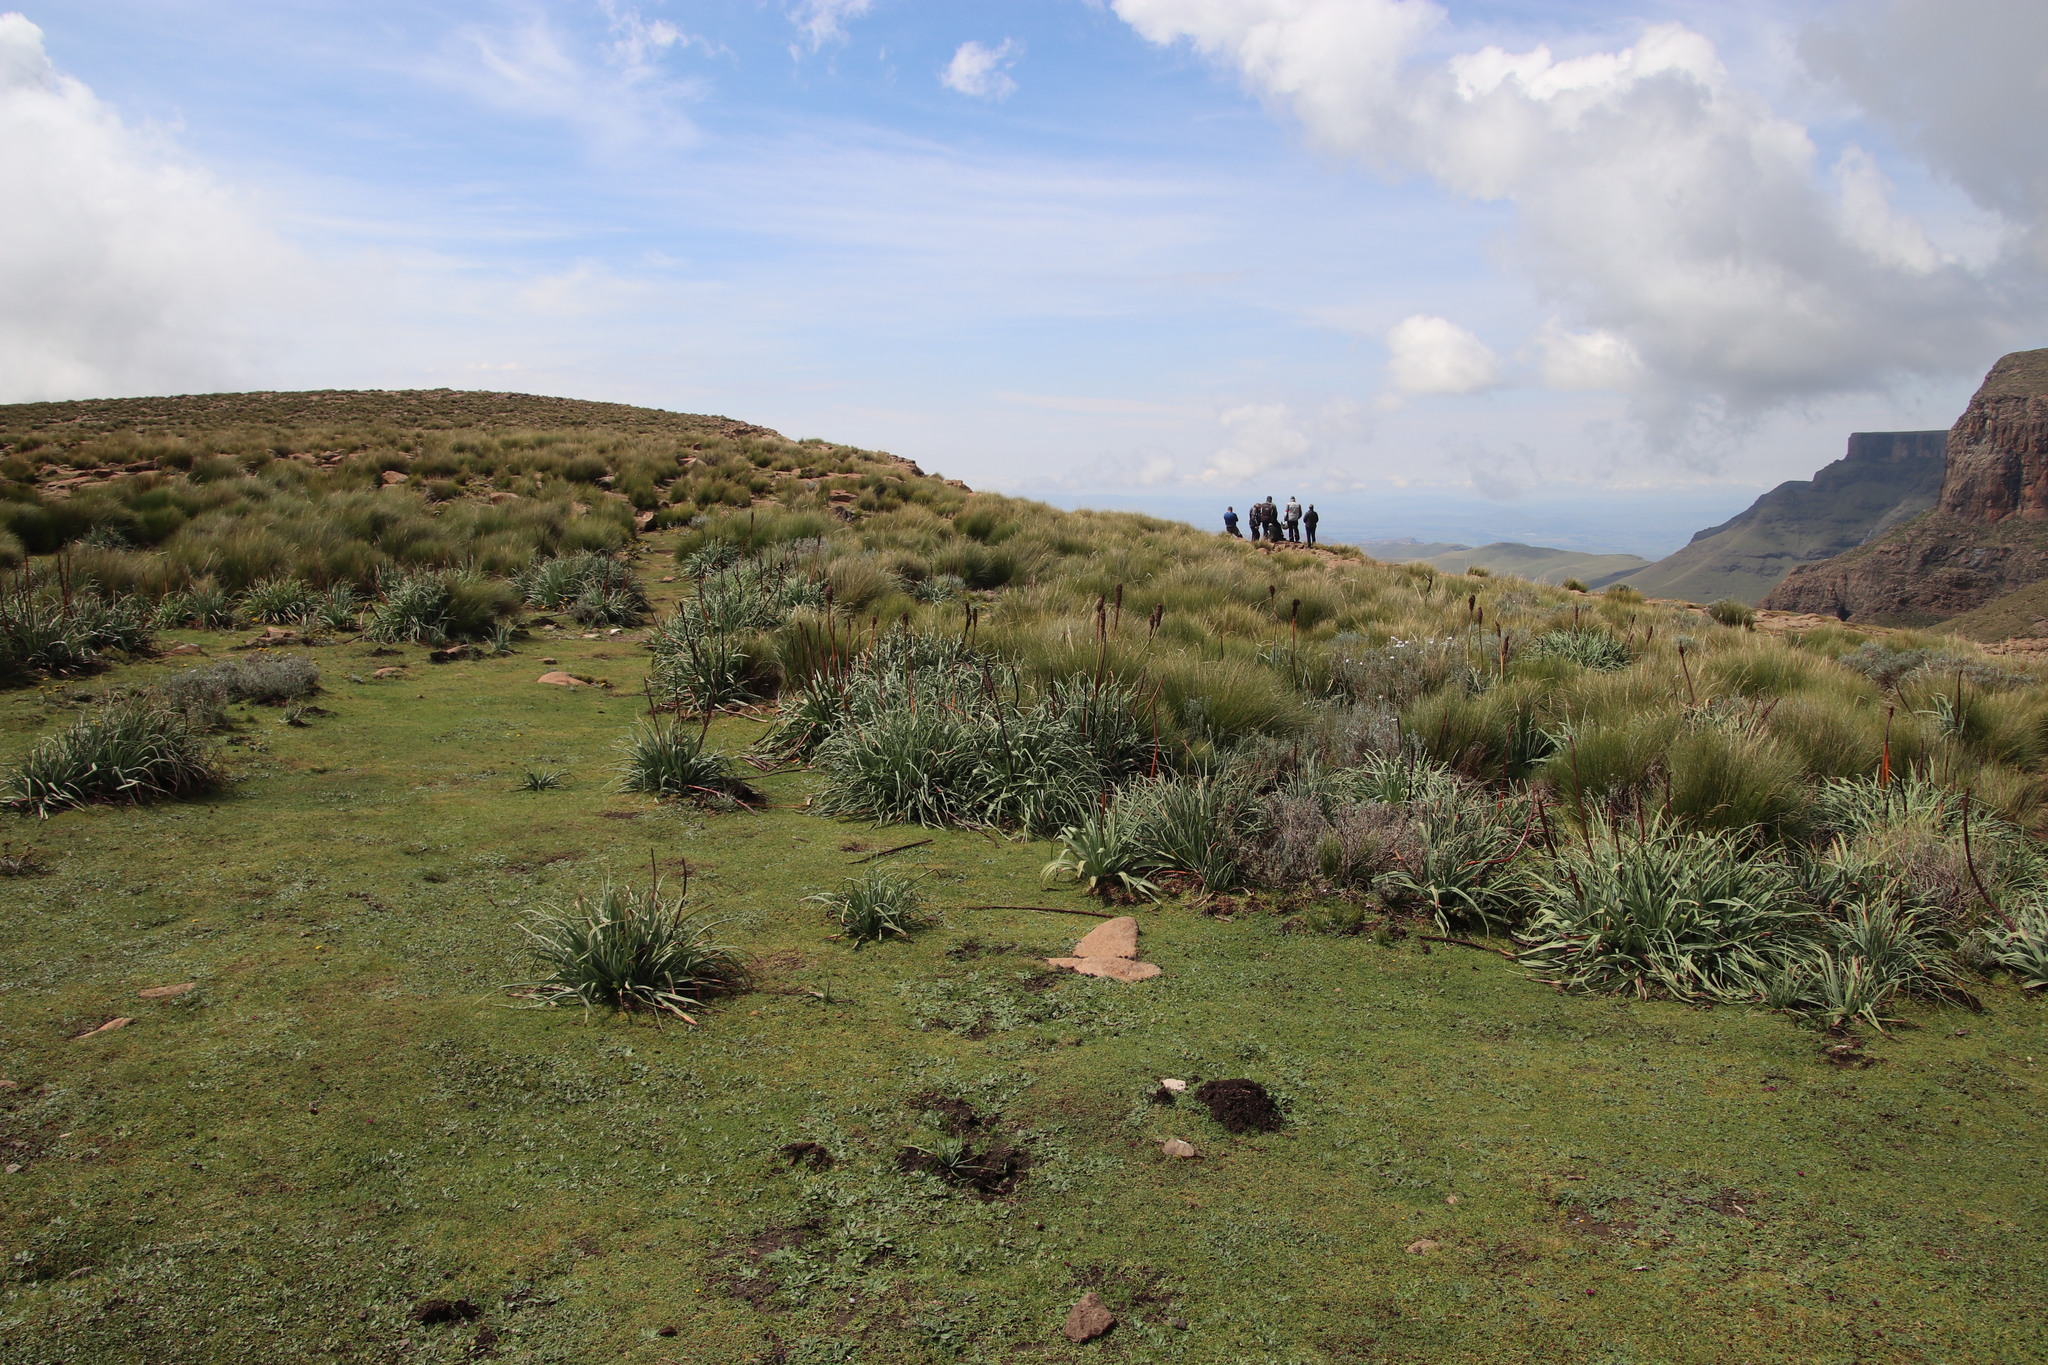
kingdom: Plantae
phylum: Tracheophyta
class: Liliopsida
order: Asparagales
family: Asphodelaceae
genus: Kniphofia
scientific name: Kniphofia caulescens
